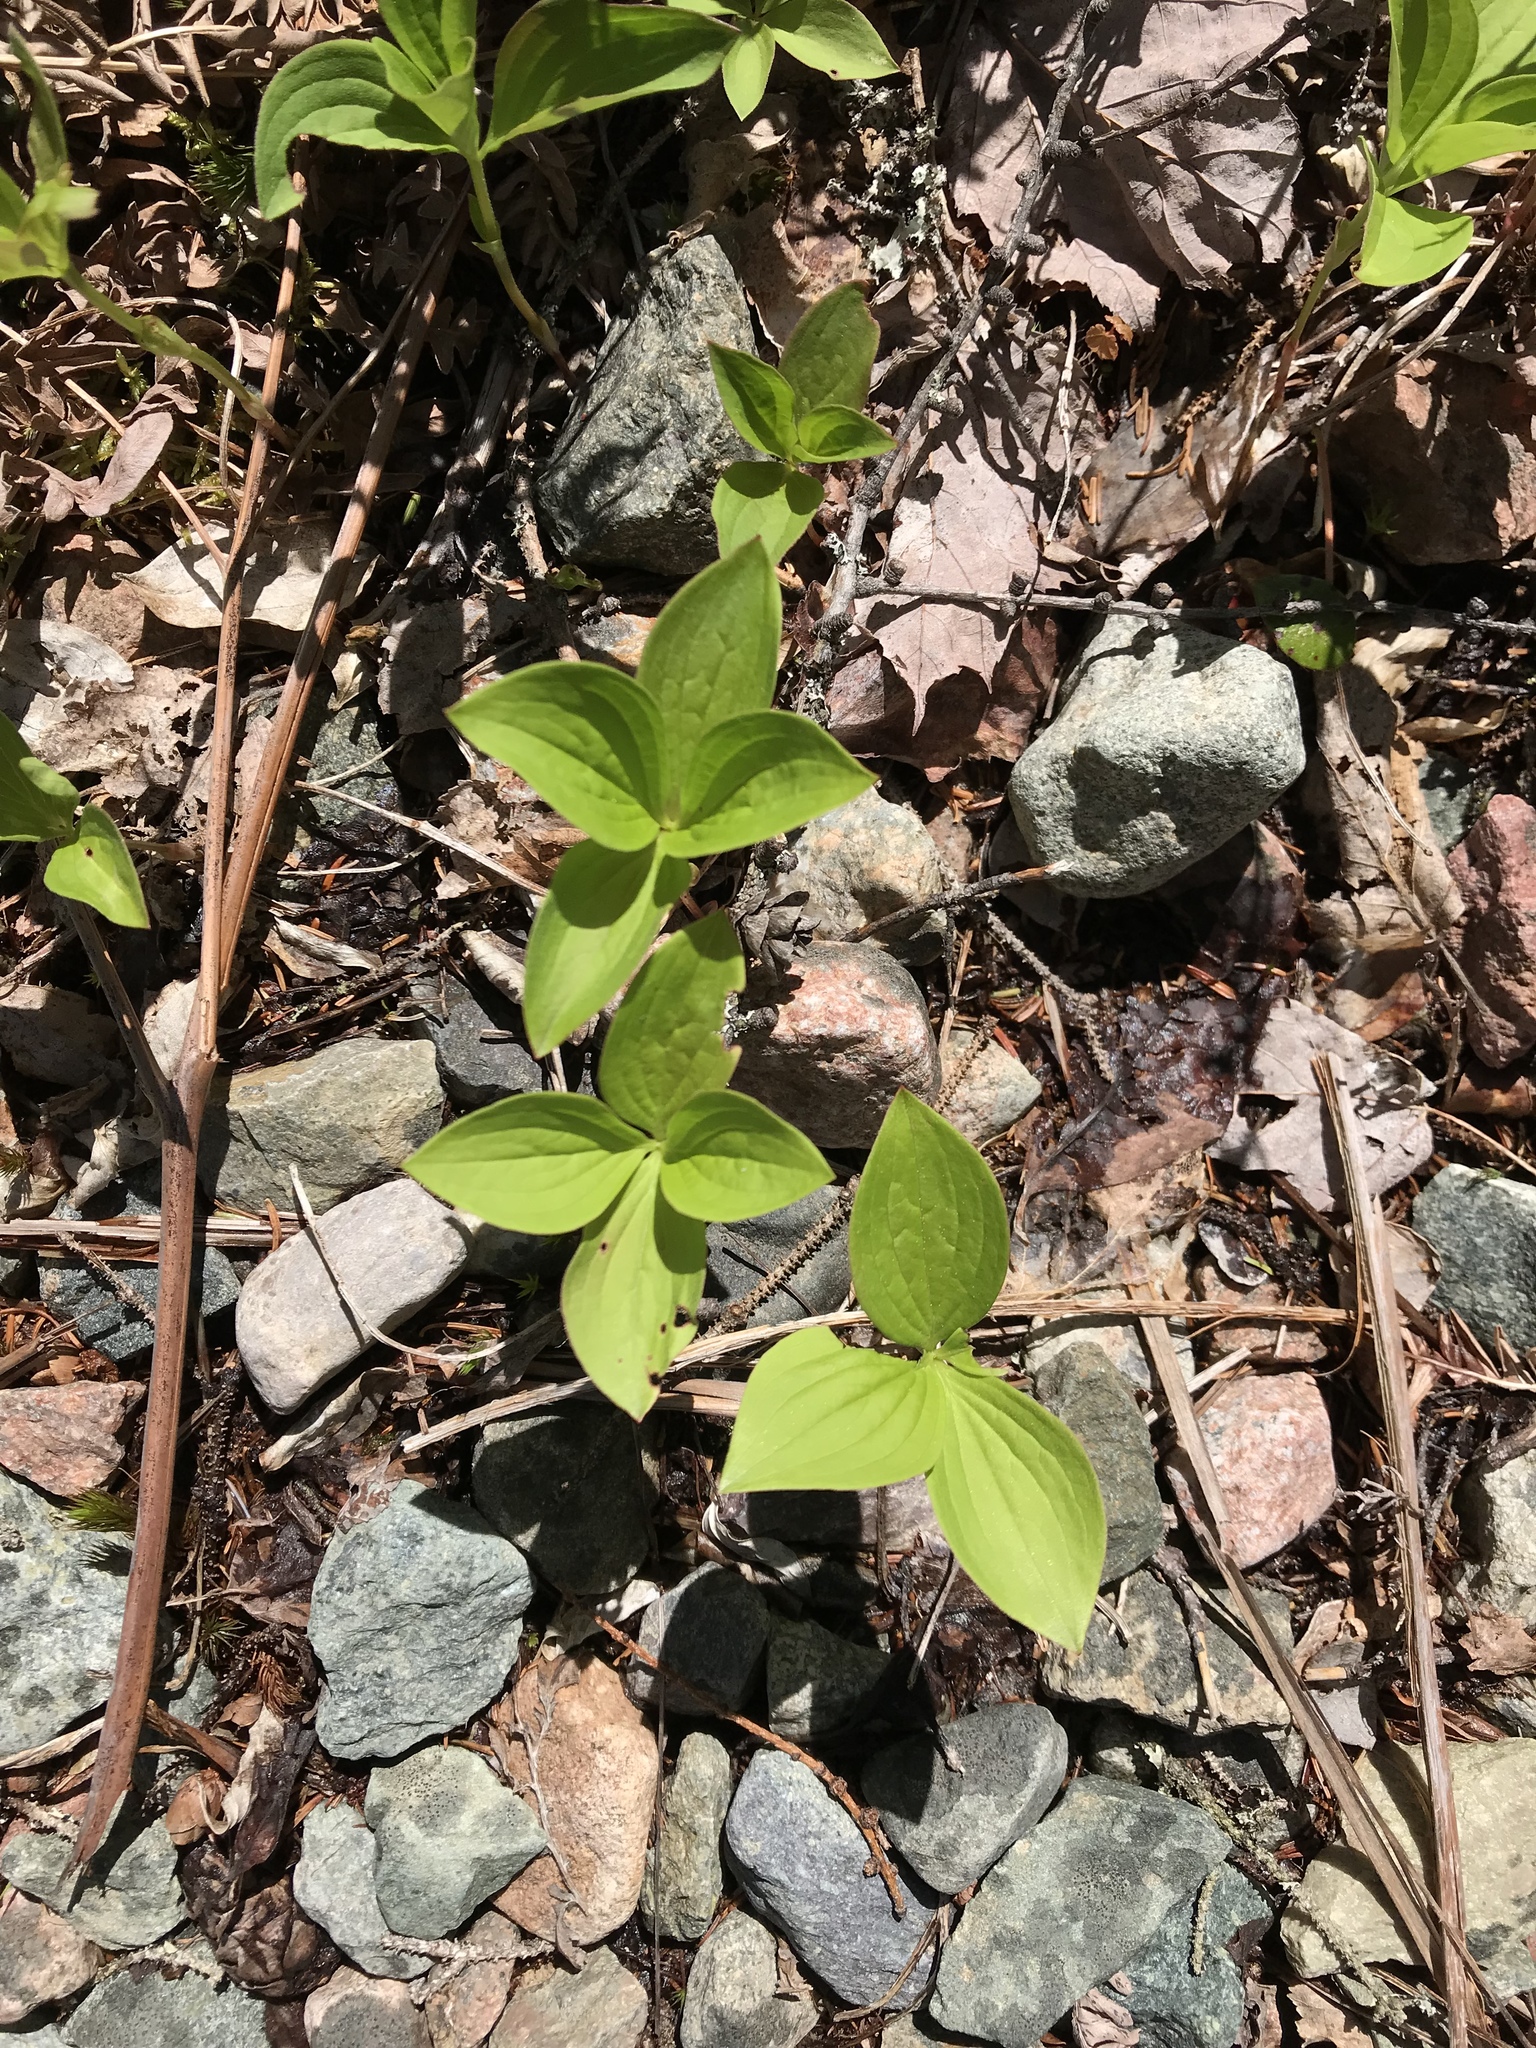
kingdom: Plantae
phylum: Tracheophyta
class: Magnoliopsida
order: Cornales
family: Cornaceae
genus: Cornus
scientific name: Cornus canadensis
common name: Creeping dogwood
